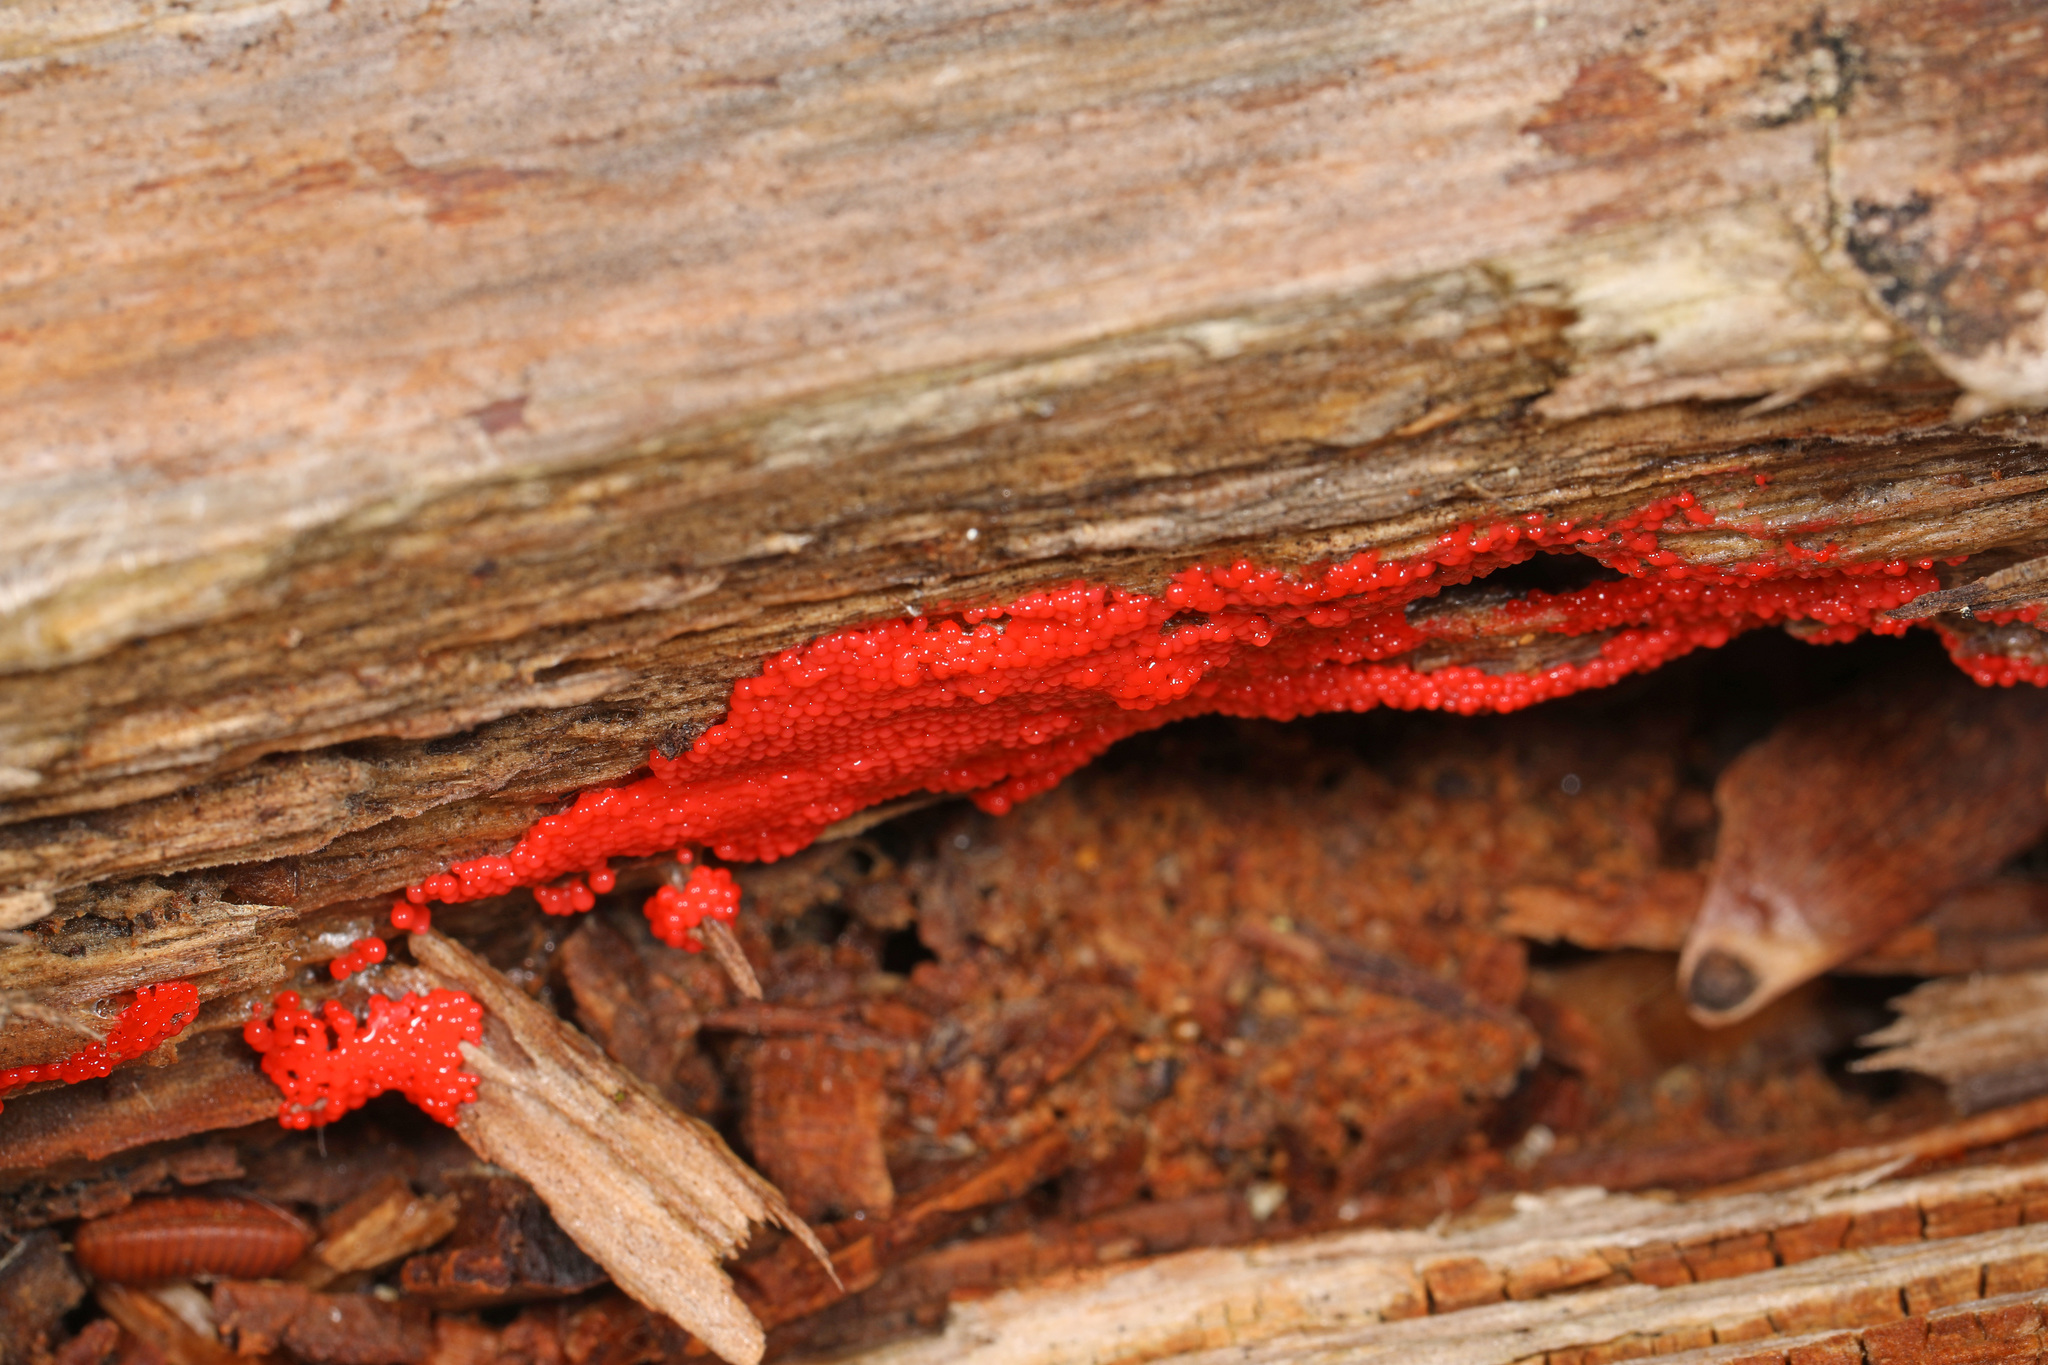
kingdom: Protozoa
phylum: Mycetozoa
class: Myxomycetes
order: Cribrariales
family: Tubiferaceae
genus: Tubifera
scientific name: Tubifera ferruginosa
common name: Red raspberry slime mold
